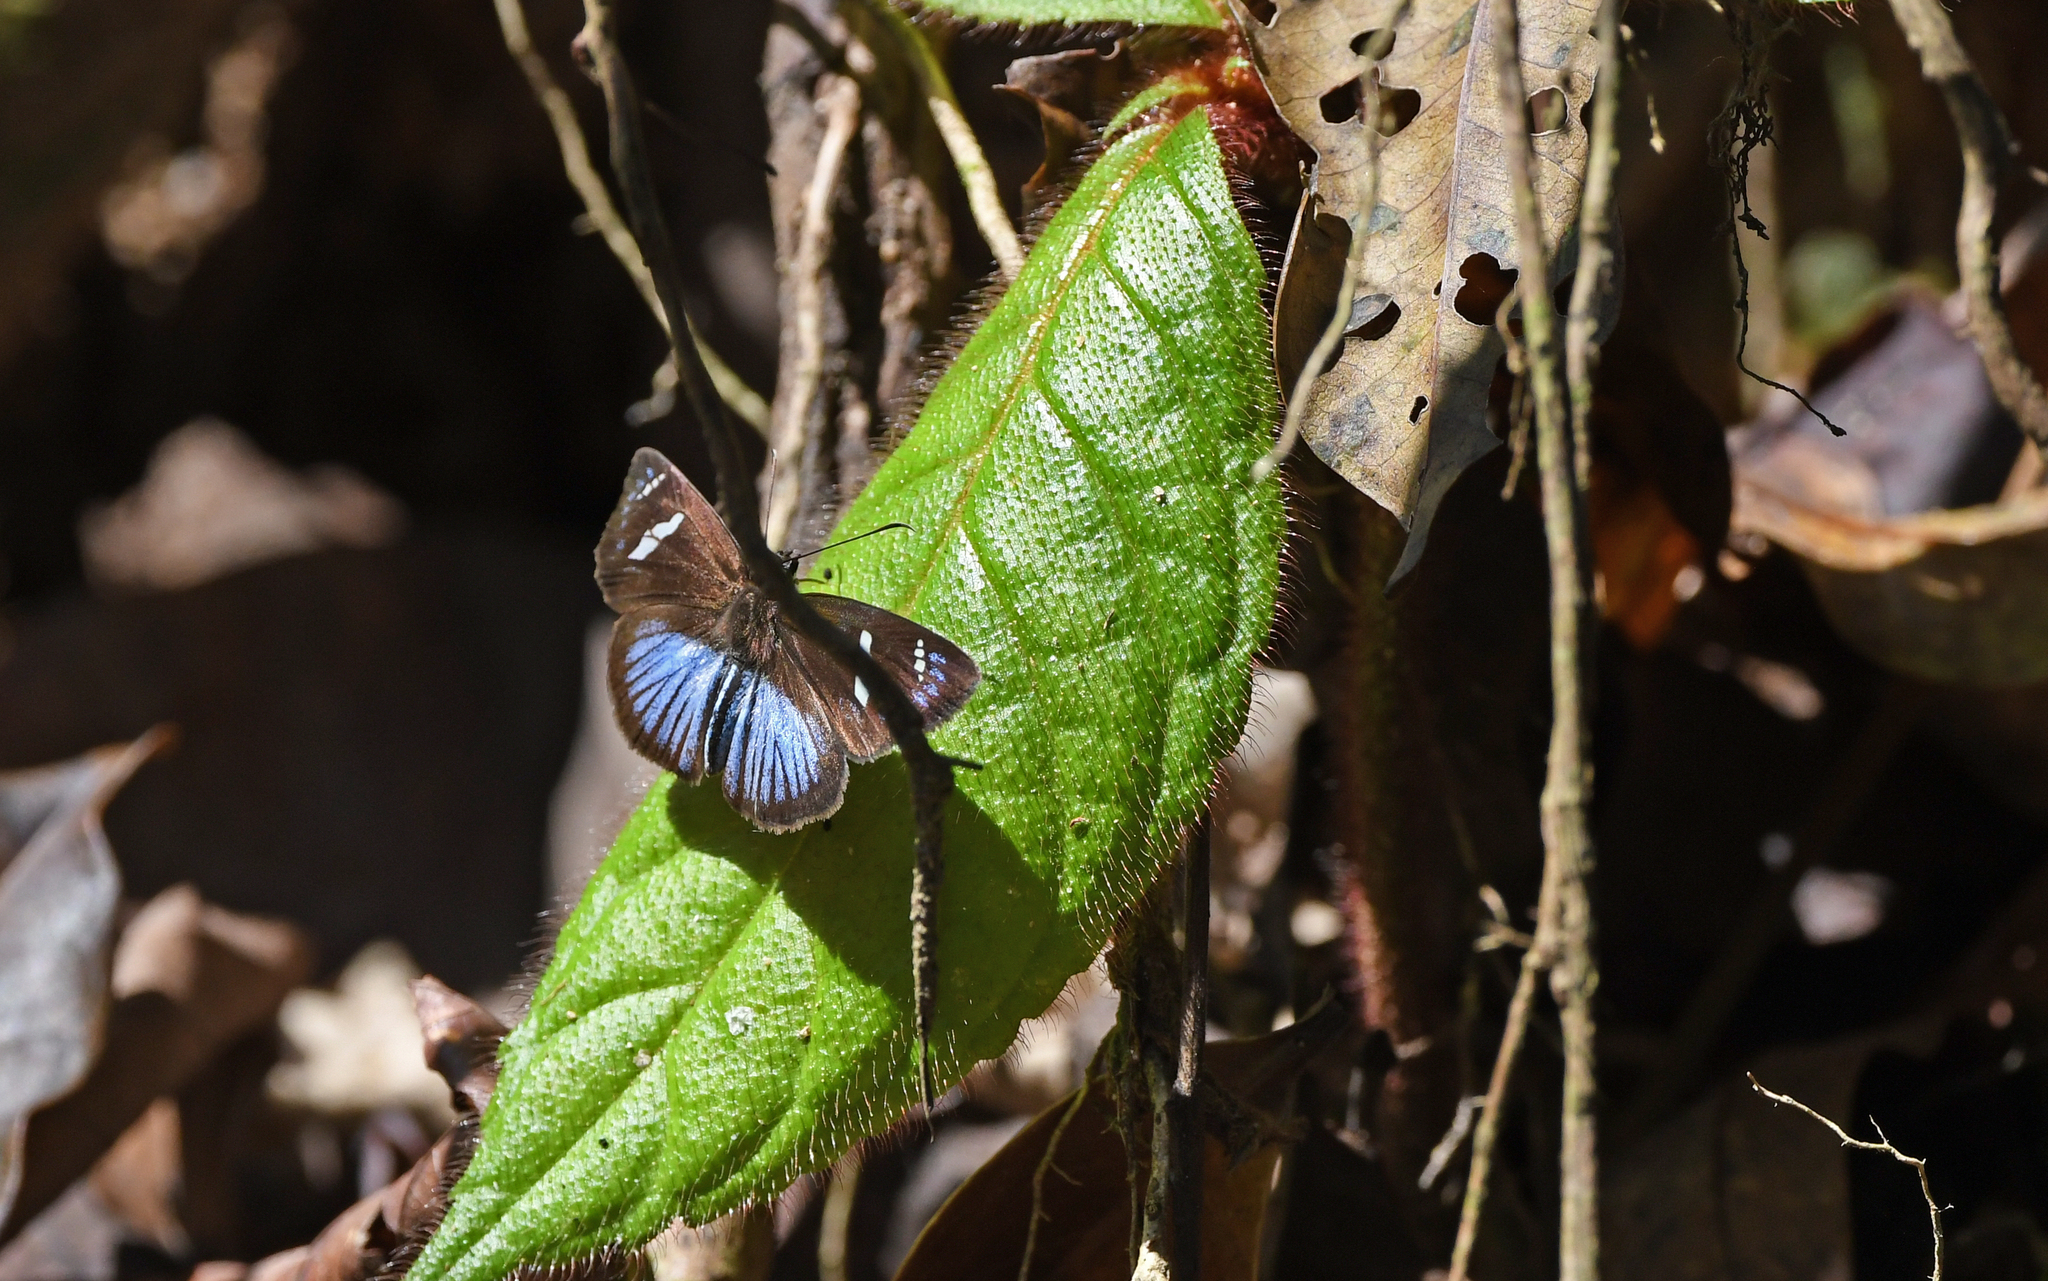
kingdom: Animalia
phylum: Arthropoda
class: Insecta
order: Lepidoptera
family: Hesperiidae
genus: Pythonides
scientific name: Pythonides jovianus
